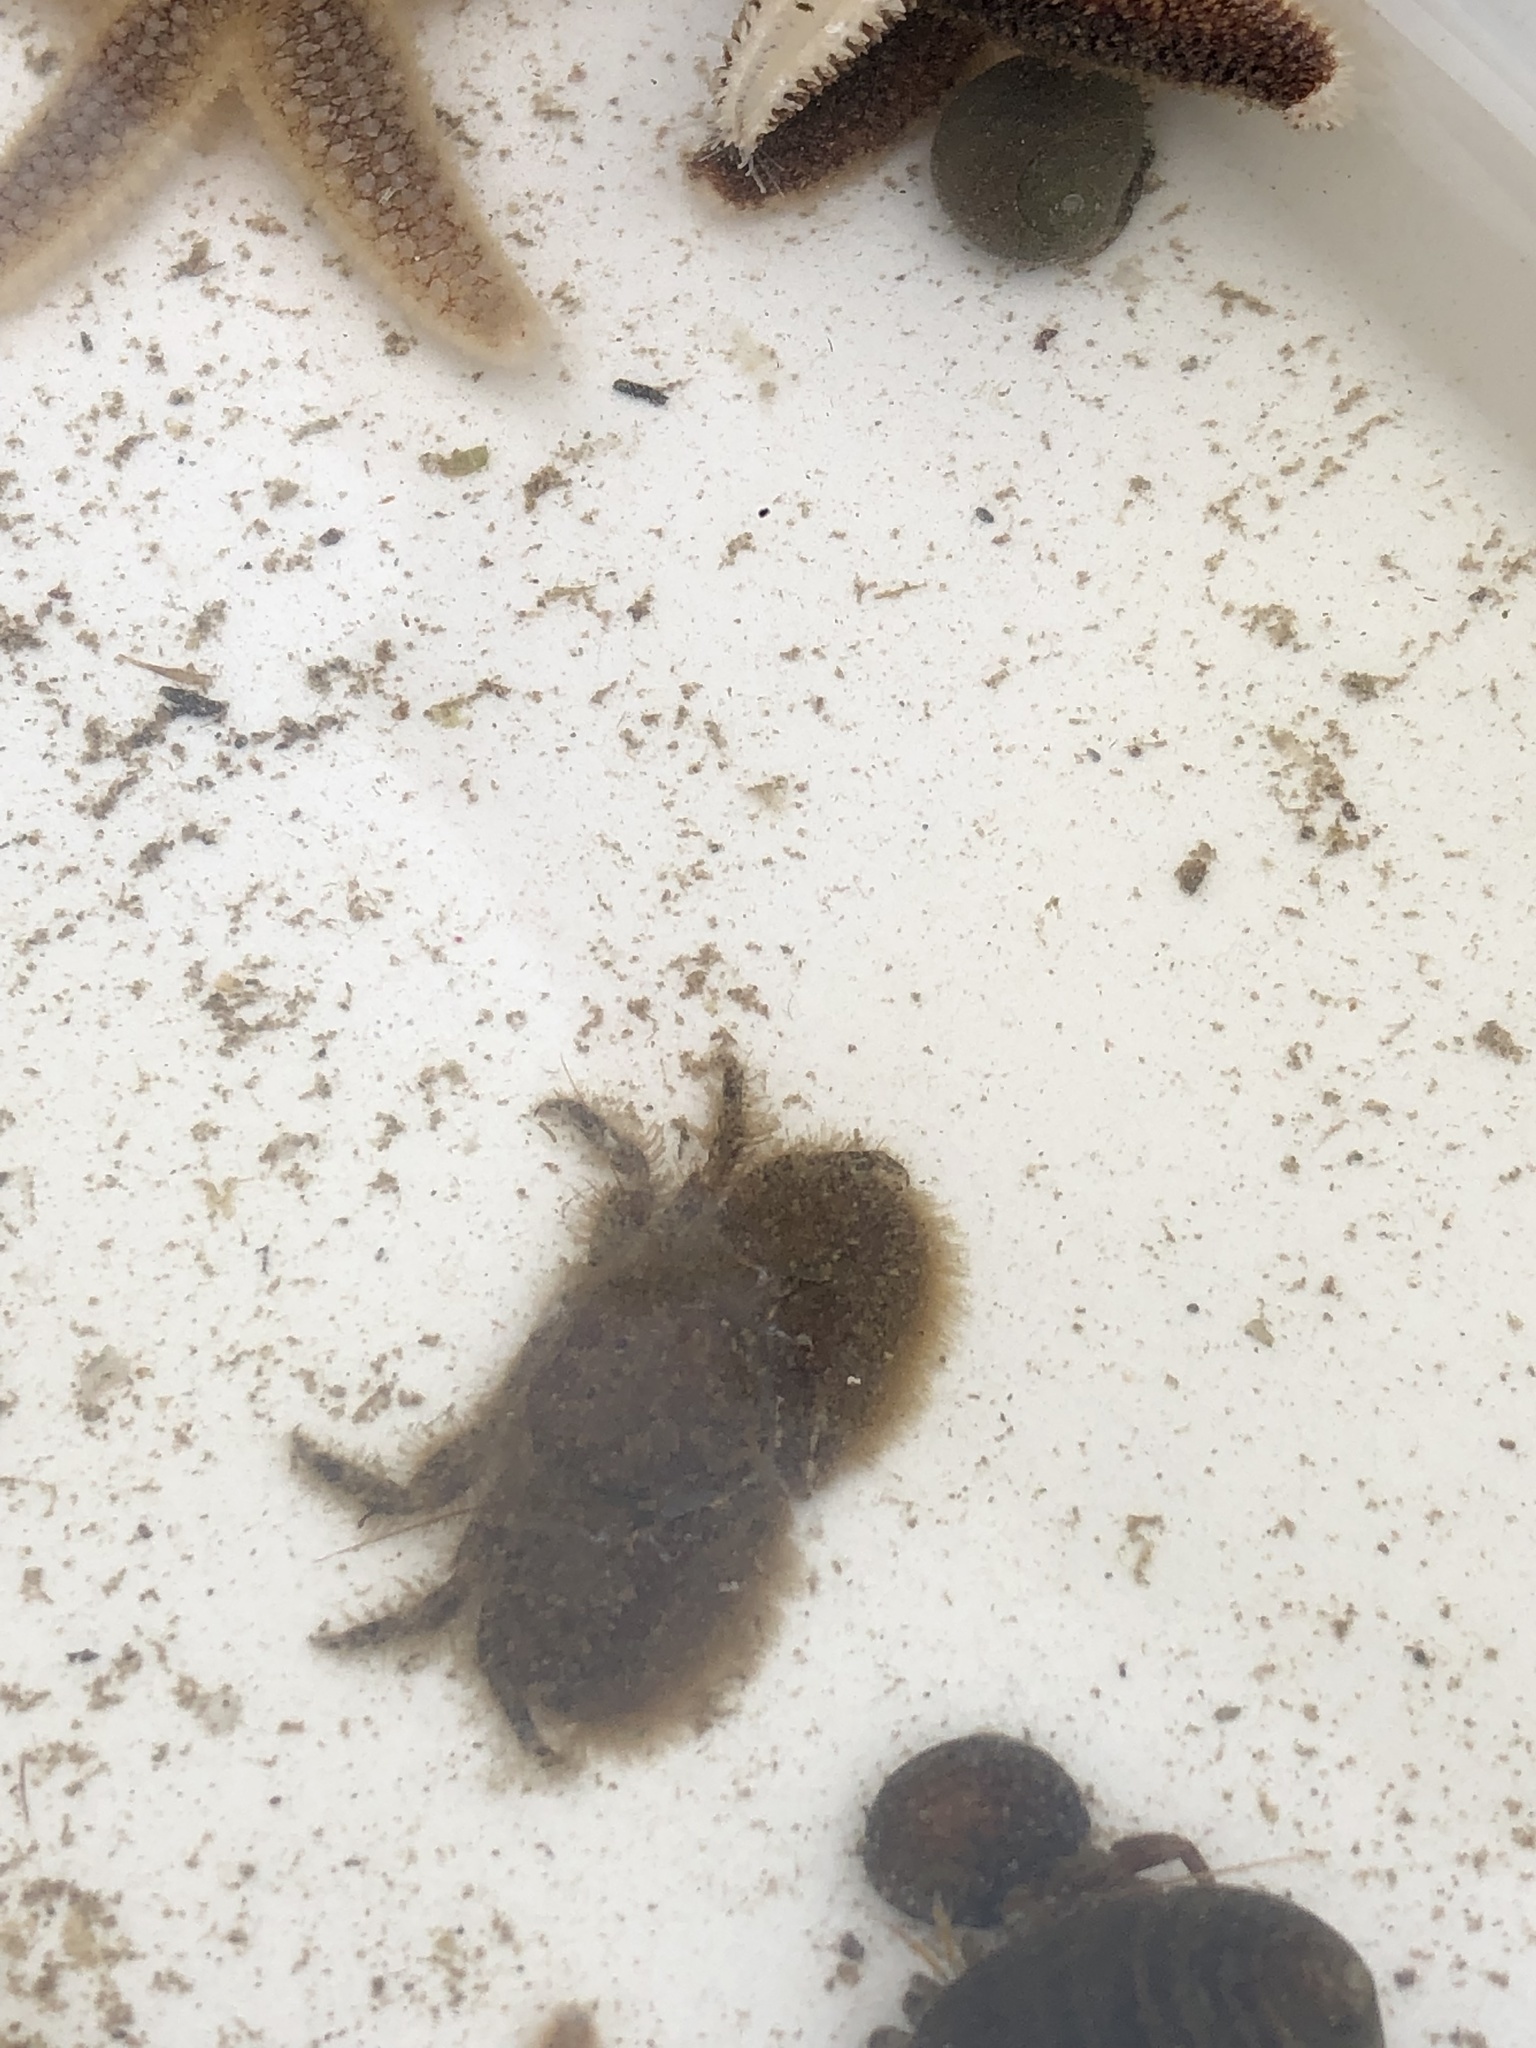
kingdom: Animalia
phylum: Arthropoda
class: Malacostraca
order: Decapoda
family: Porcellanidae
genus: Porcellana
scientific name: Porcellana platycheles
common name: Porcelain crab
